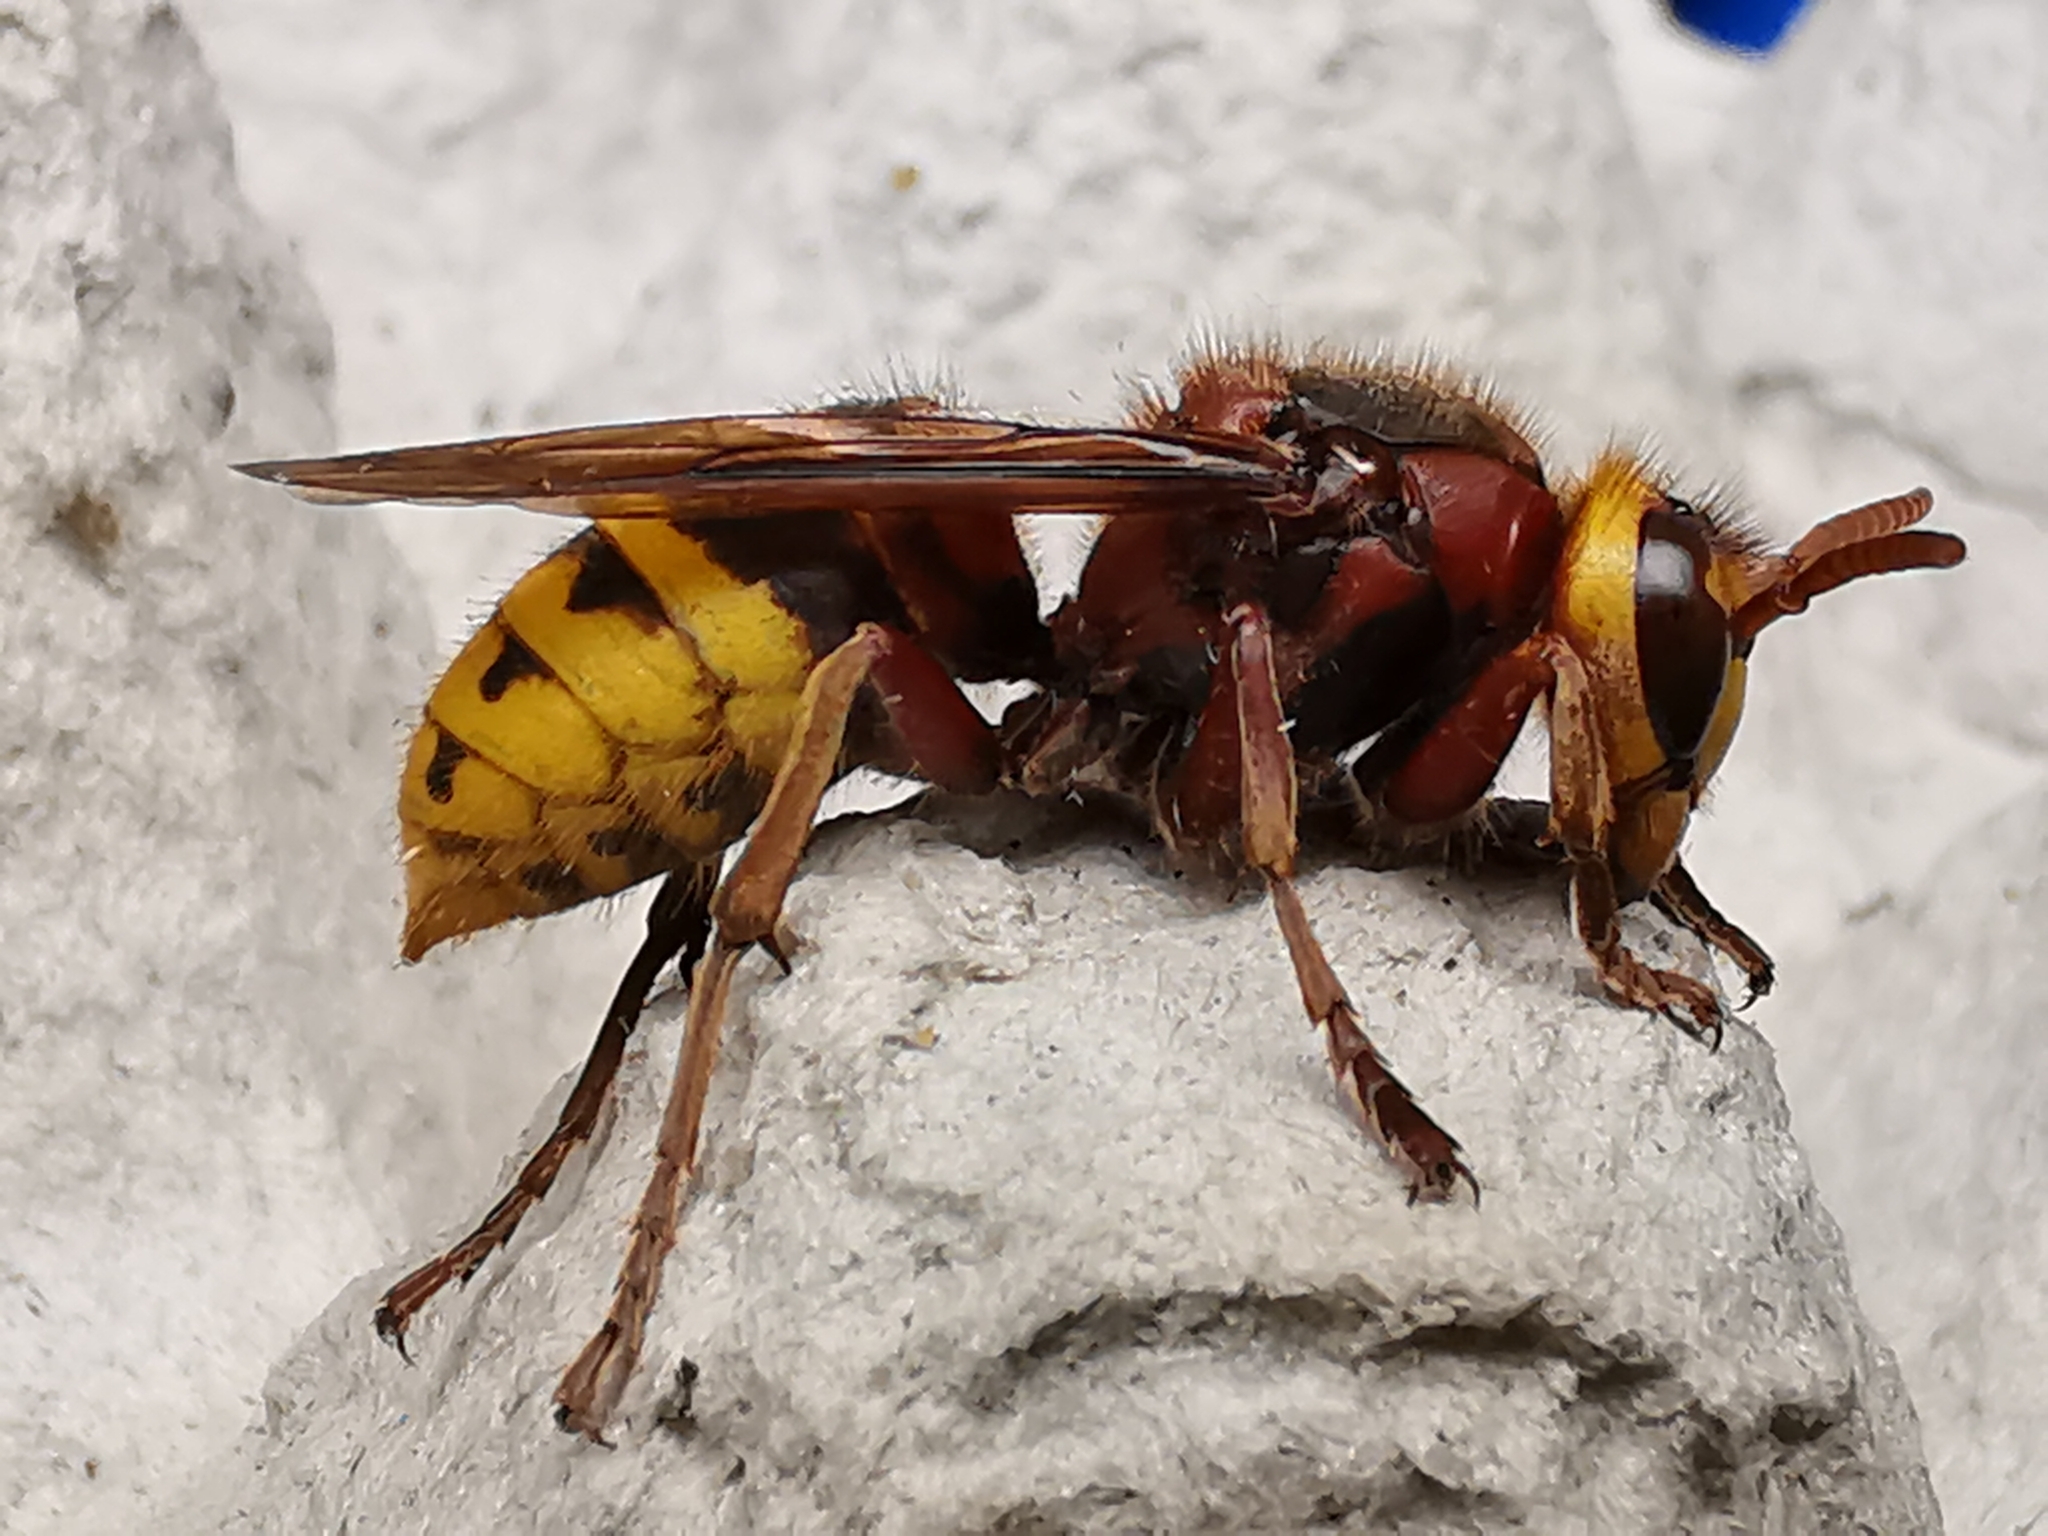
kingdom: Animalia
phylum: Arthropoda
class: Insecta
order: Hymenoptera
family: Vespidae
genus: Vespa
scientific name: Vespa crabro
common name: Hornet
